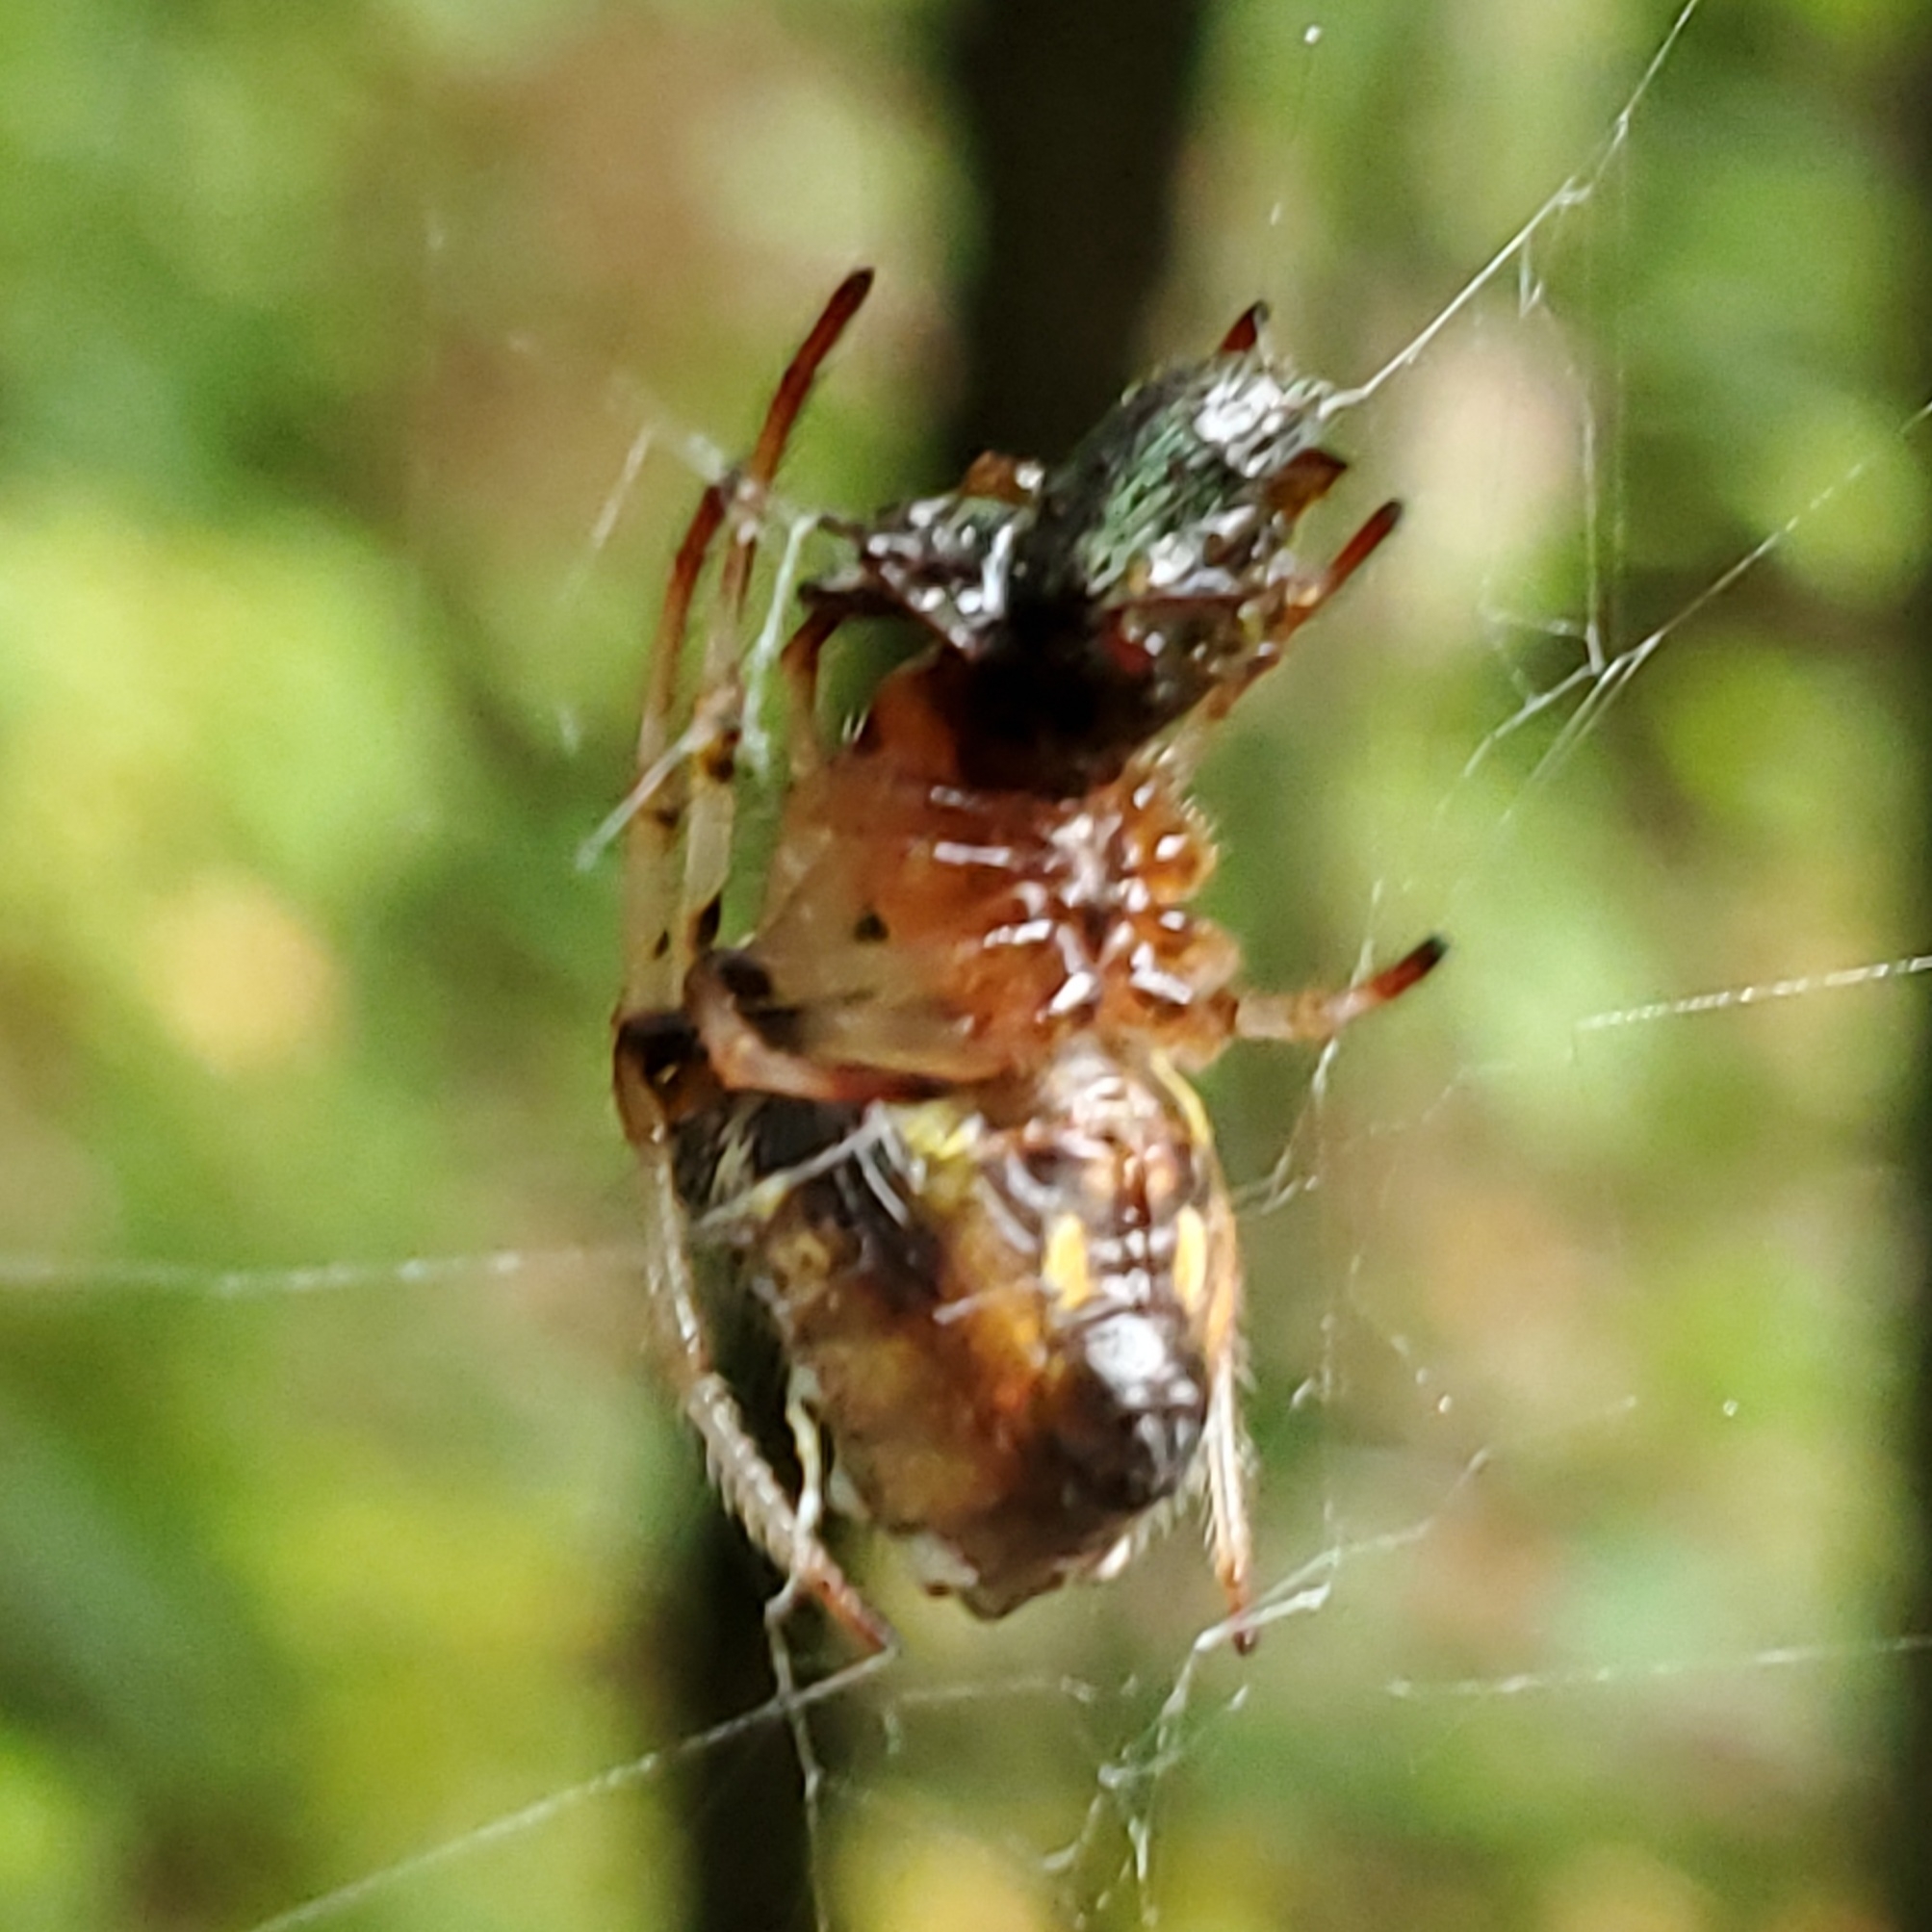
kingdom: Animalia
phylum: Arthropoda
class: Arachnida
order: Araneae
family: Araneidae
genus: Verrucosa
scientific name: Verrucosa arenata
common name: Orb weavers
